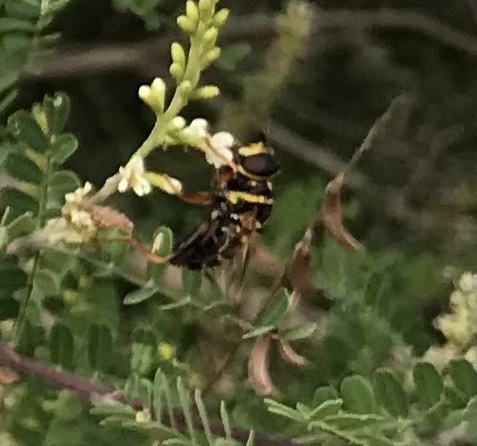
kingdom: Animalia
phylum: Arthropoda
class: Insecta
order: Diptera
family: Syrphidae
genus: Meromacrus
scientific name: Meromacrus acutus
